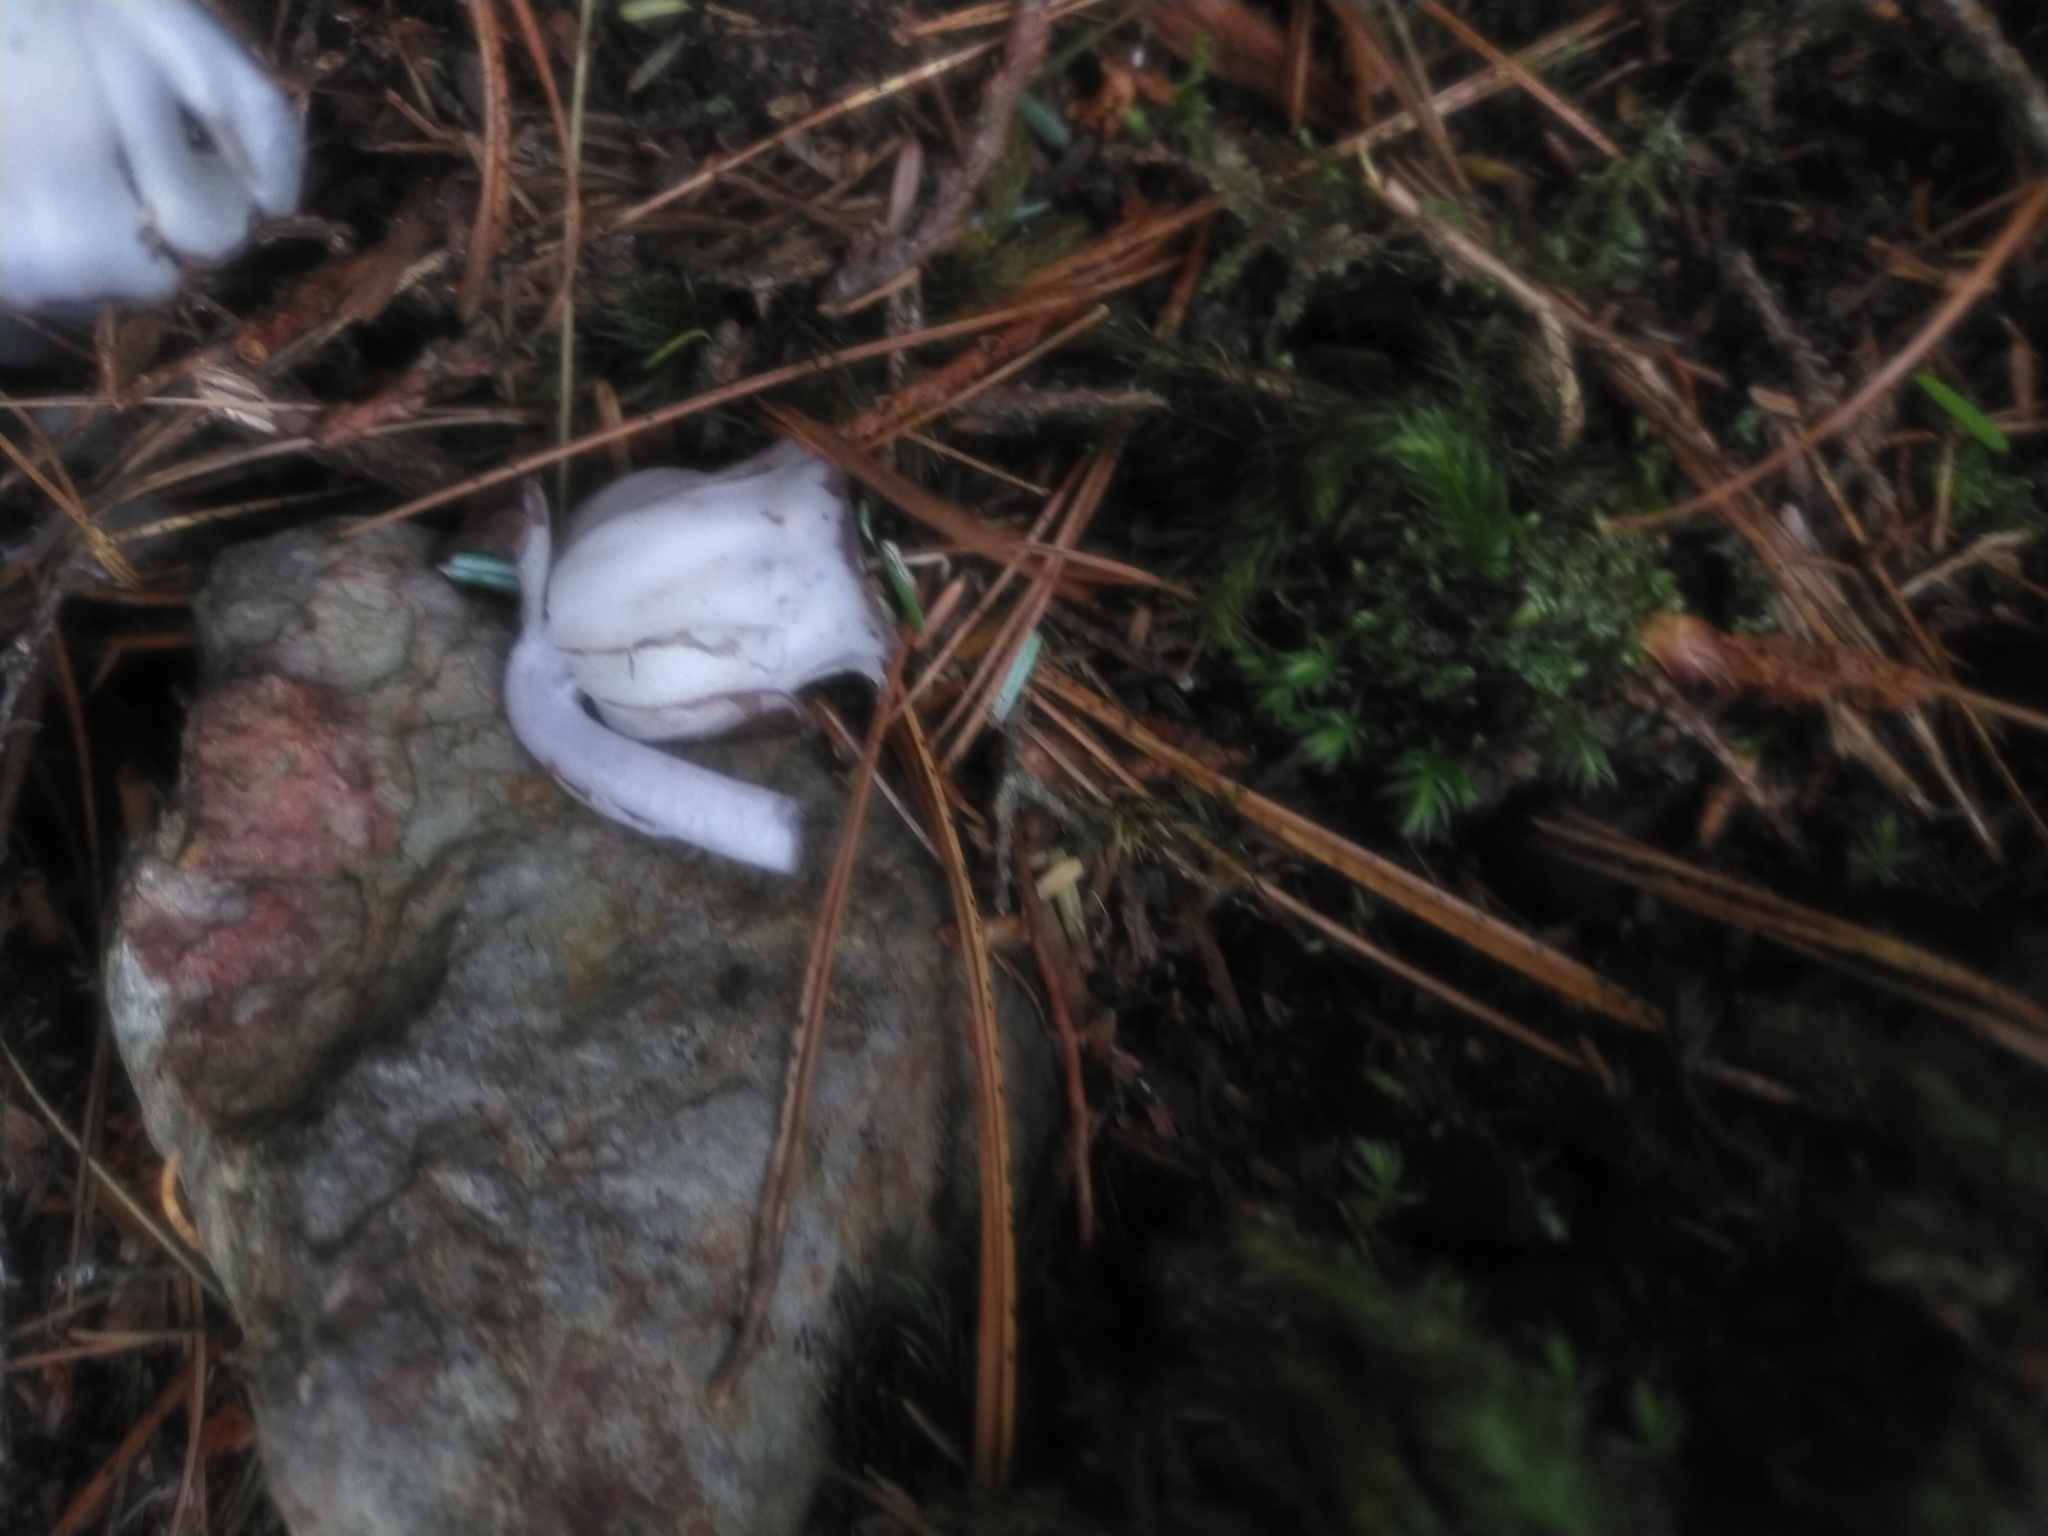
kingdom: Plantae
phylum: Tracheophyta
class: Magnoliopsida
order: Ericales
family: Ericaceae
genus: Monotropastrum
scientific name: Monotropastrum humile
